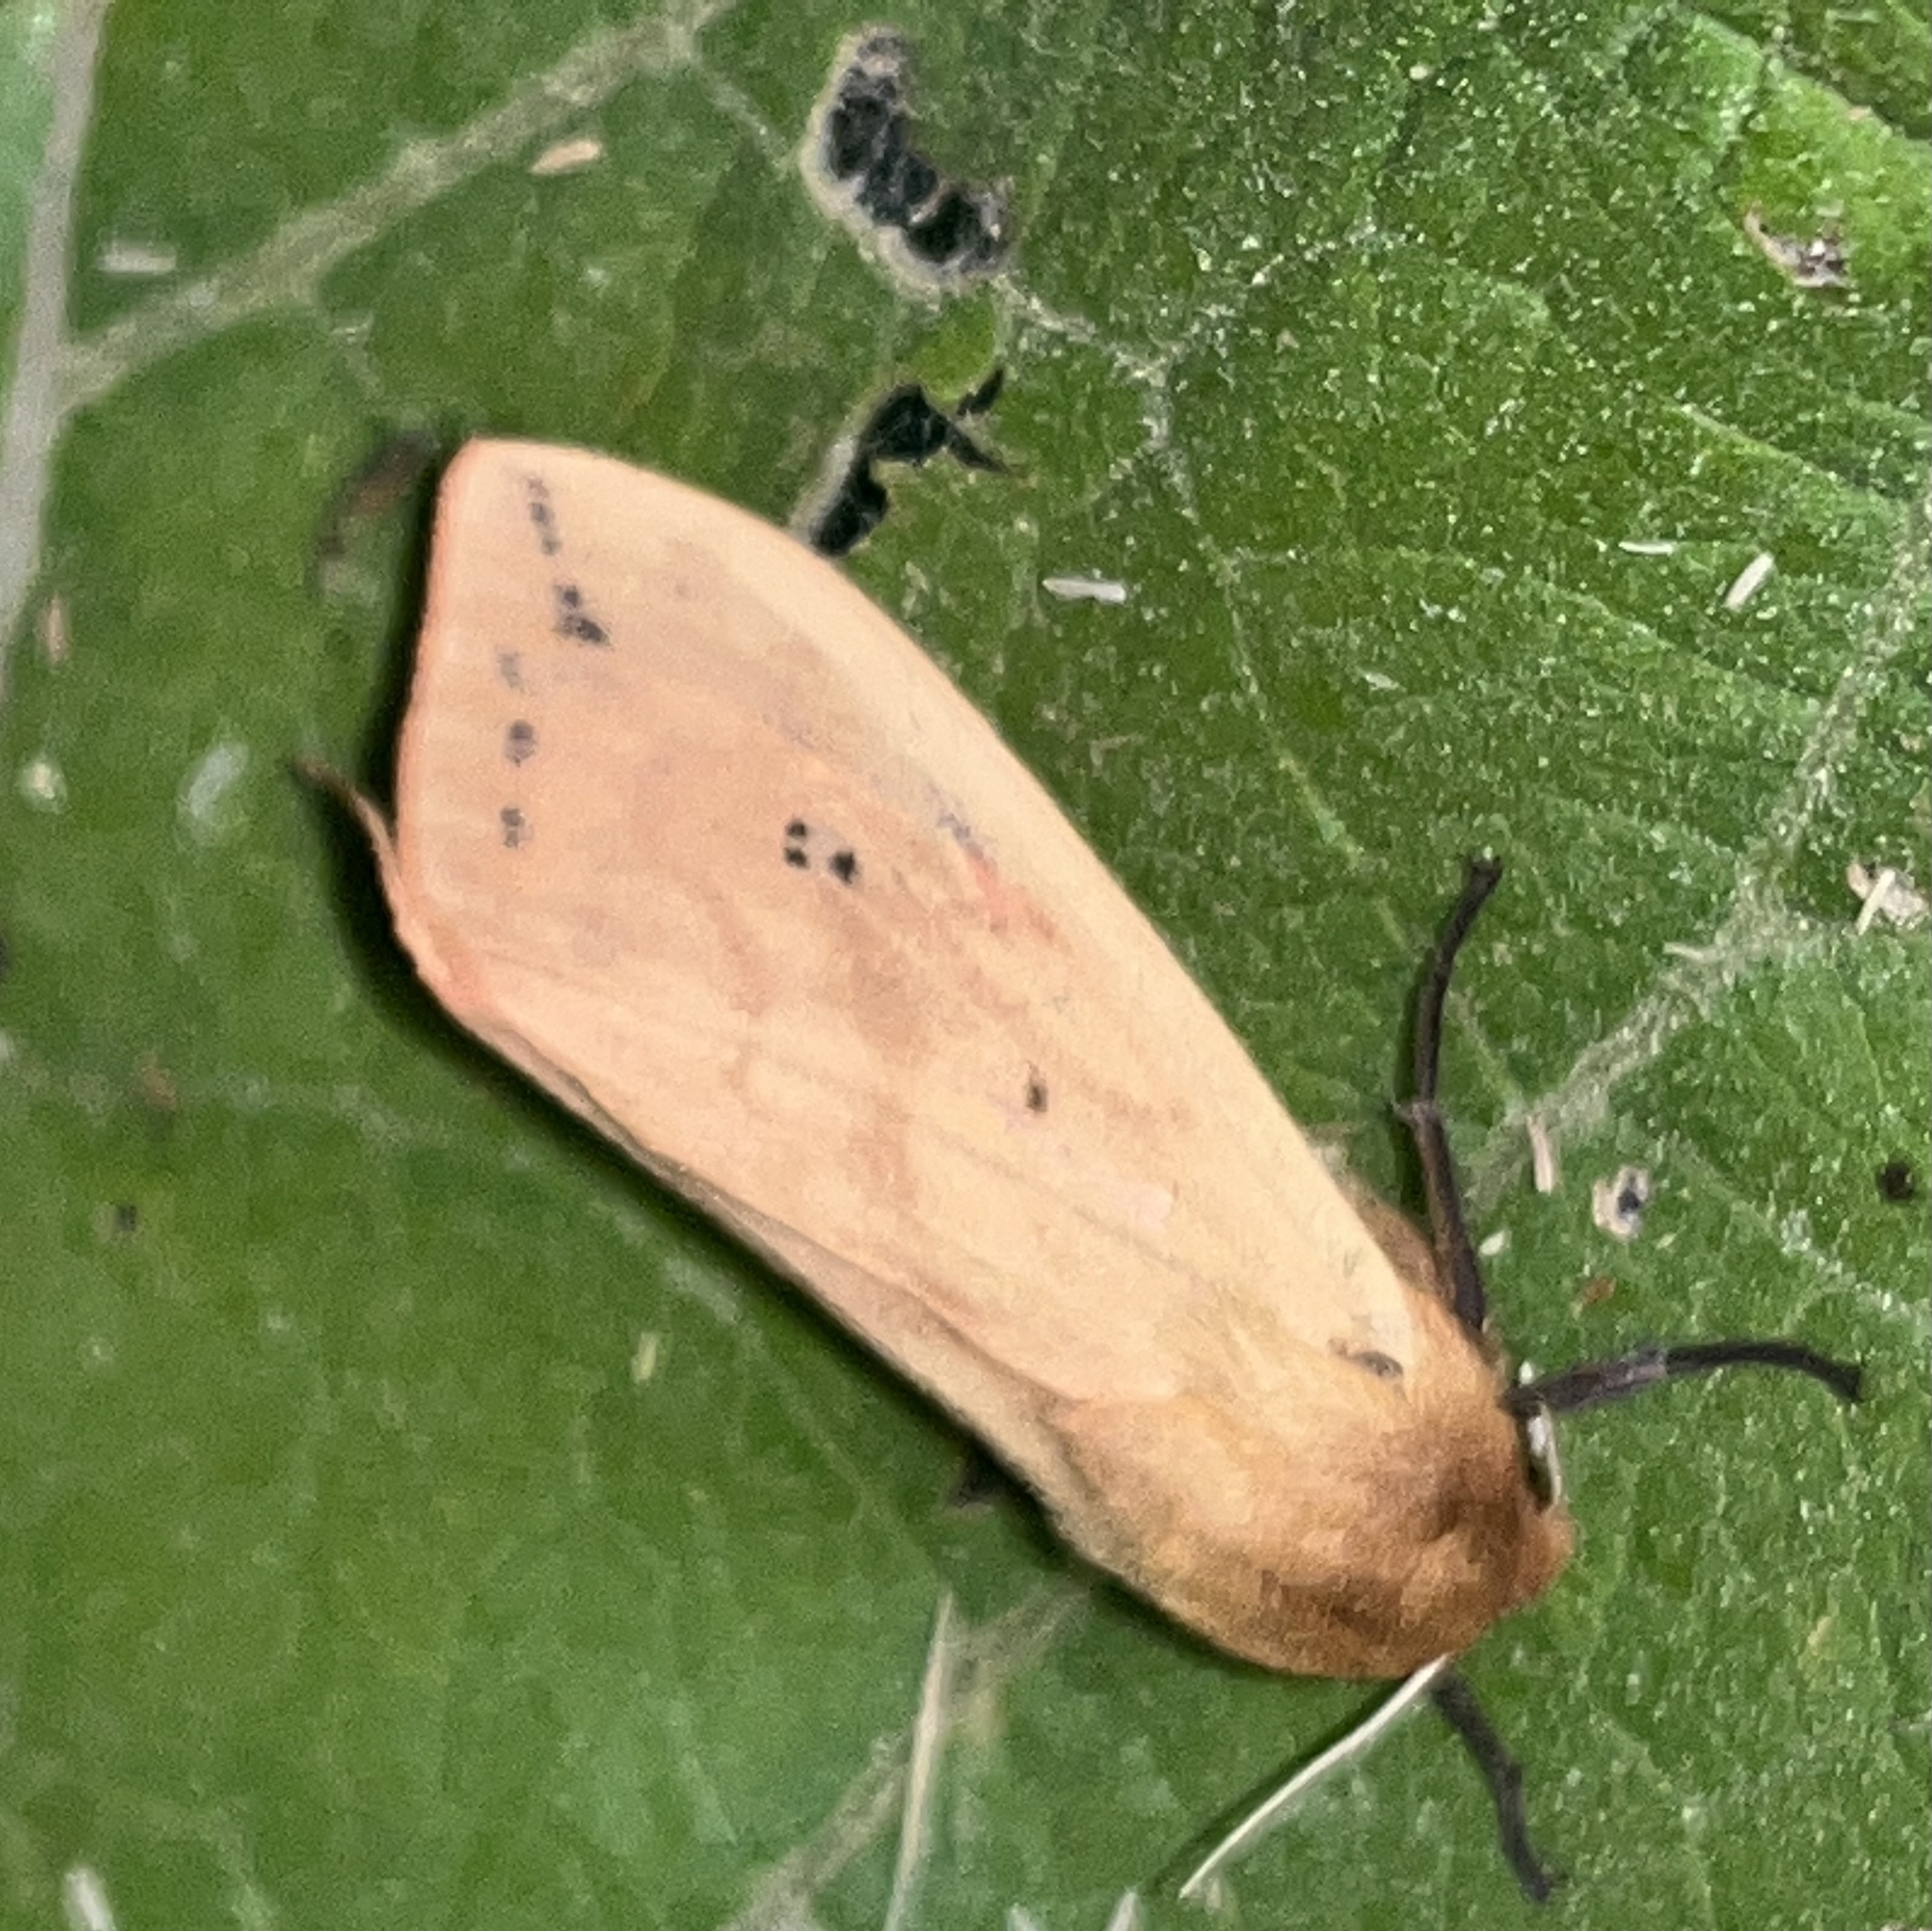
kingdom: Animalia
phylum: Arthropoda
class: Insecta
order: Lepidoptera
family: Erebidae
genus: Pyrrharctia
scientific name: Pyrrharctia isabella
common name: Isabella tiger moth
